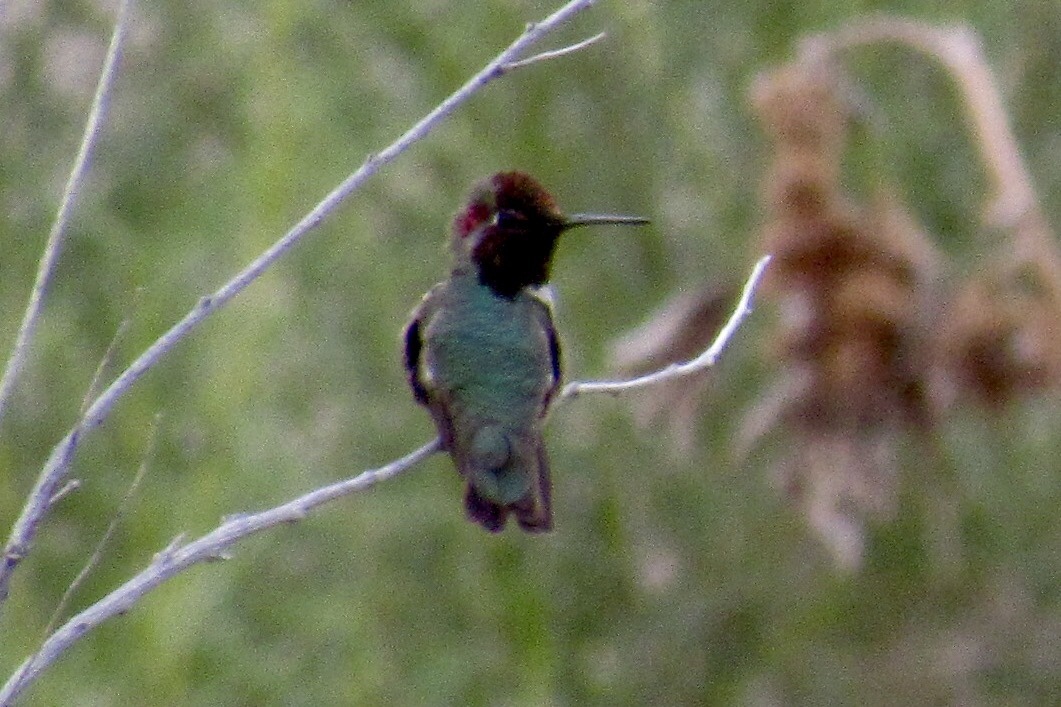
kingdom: Animalia
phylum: Chordata
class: Aves
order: Apodiformes
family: Trochilidae
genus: Calypte
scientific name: Calypte anna
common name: Anna's hummingbird
